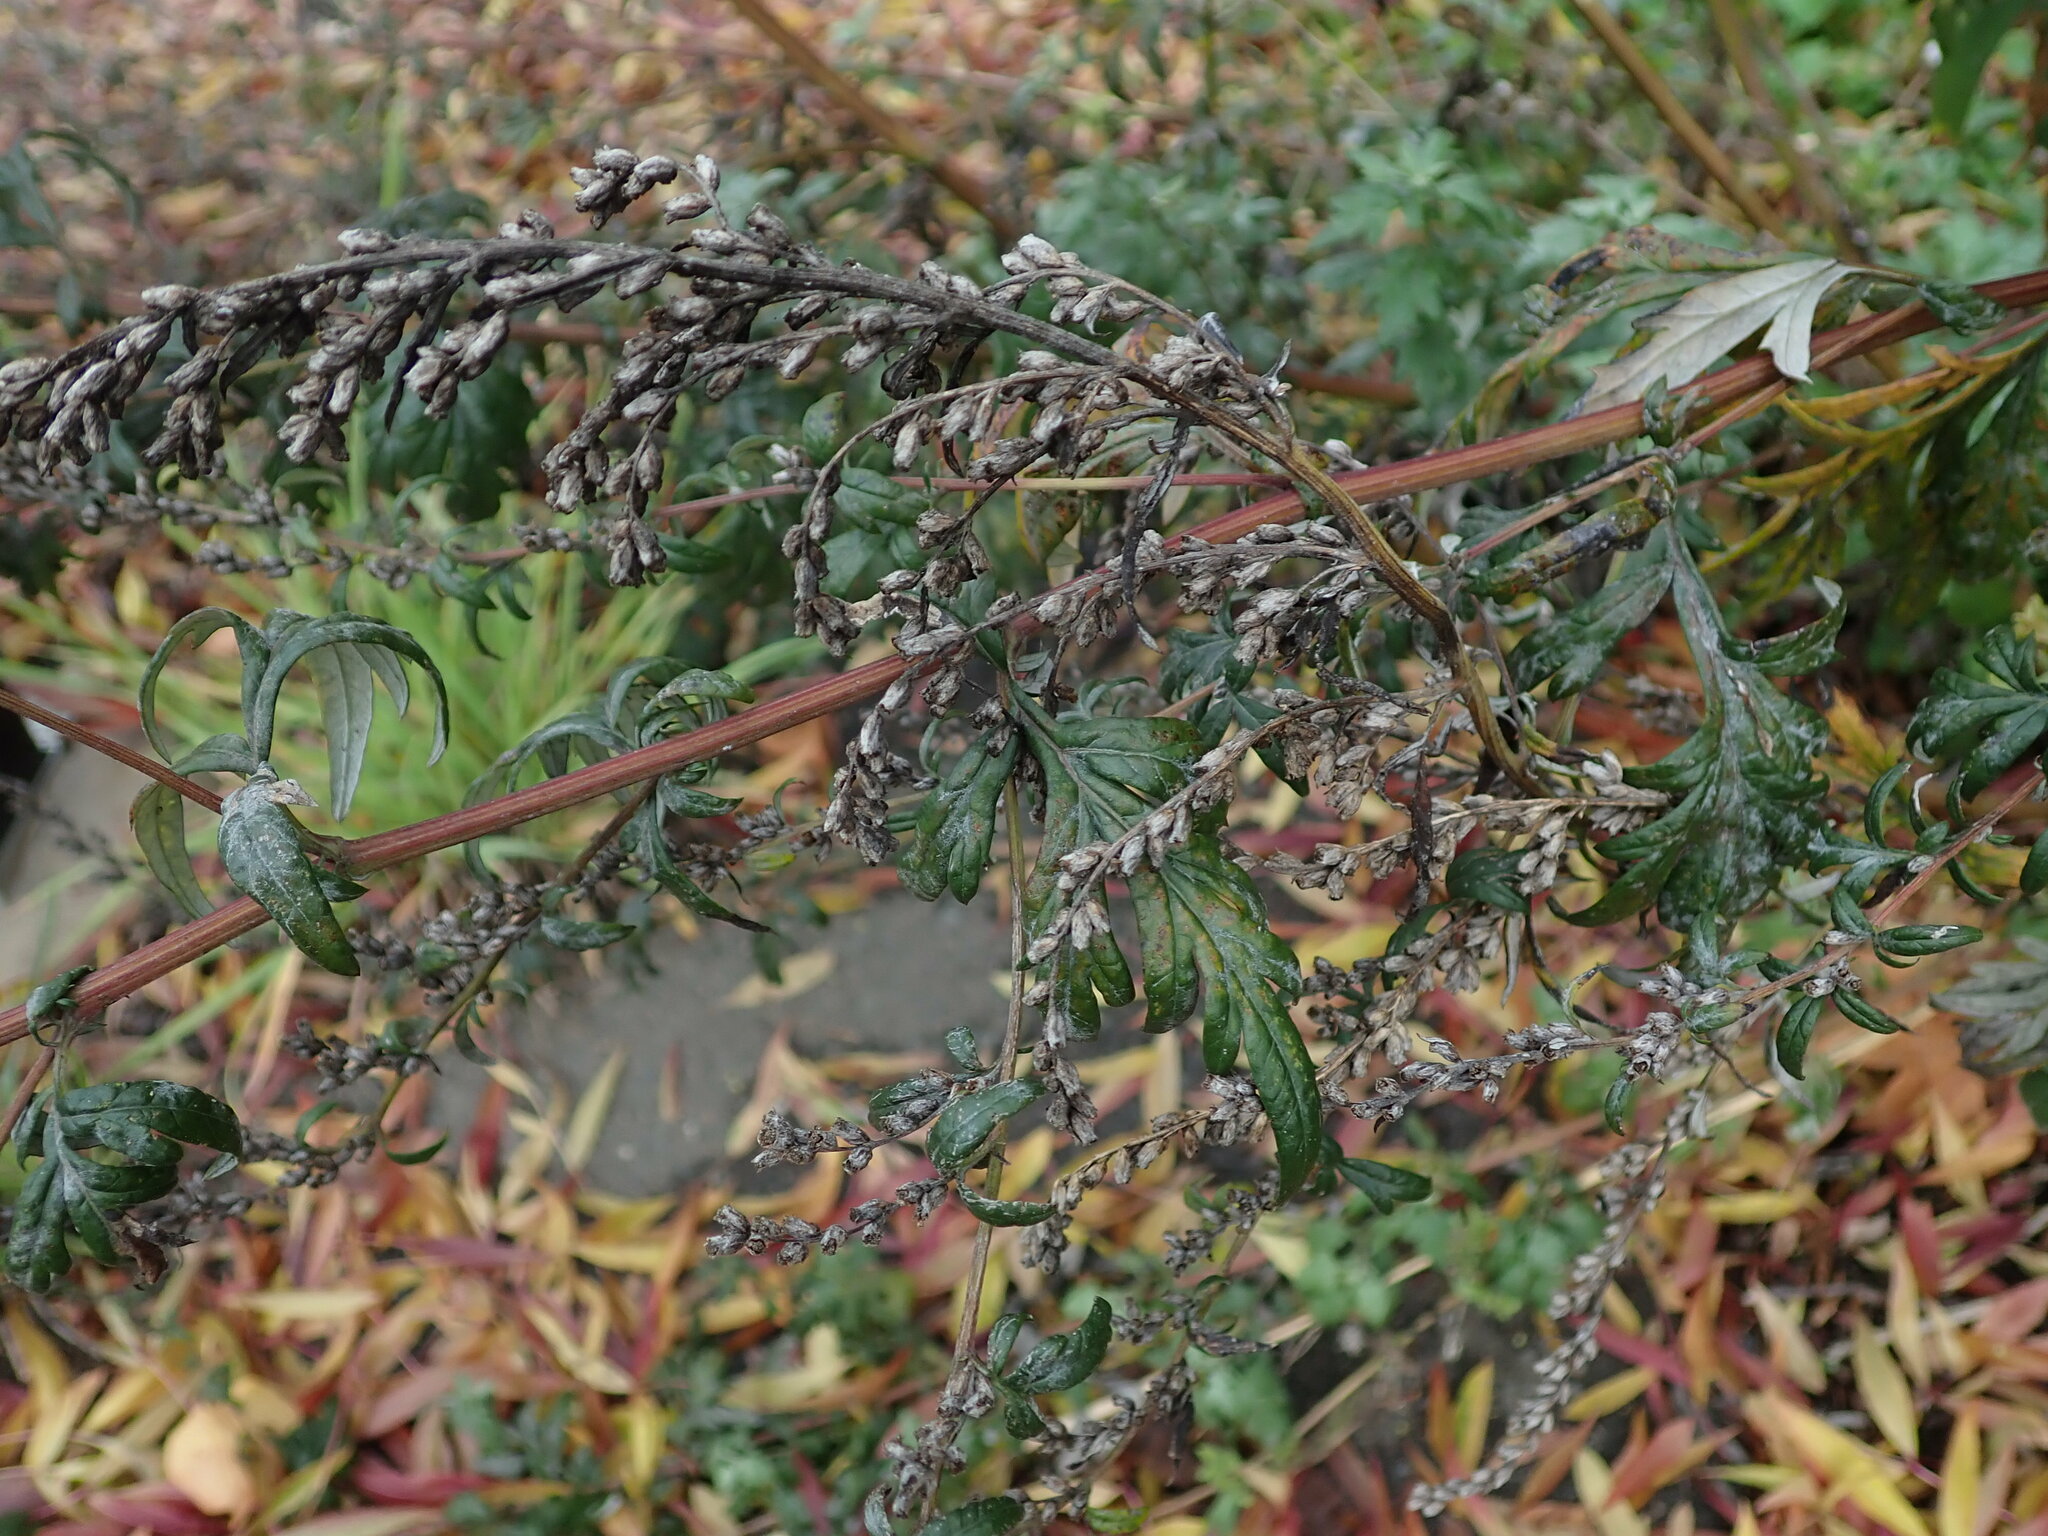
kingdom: Plantae
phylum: Tracheophyta
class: Magnoliopsida
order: Asterales
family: Asteraceae
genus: Artemisia
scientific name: Artemisia vulgaris
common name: Mugwort
